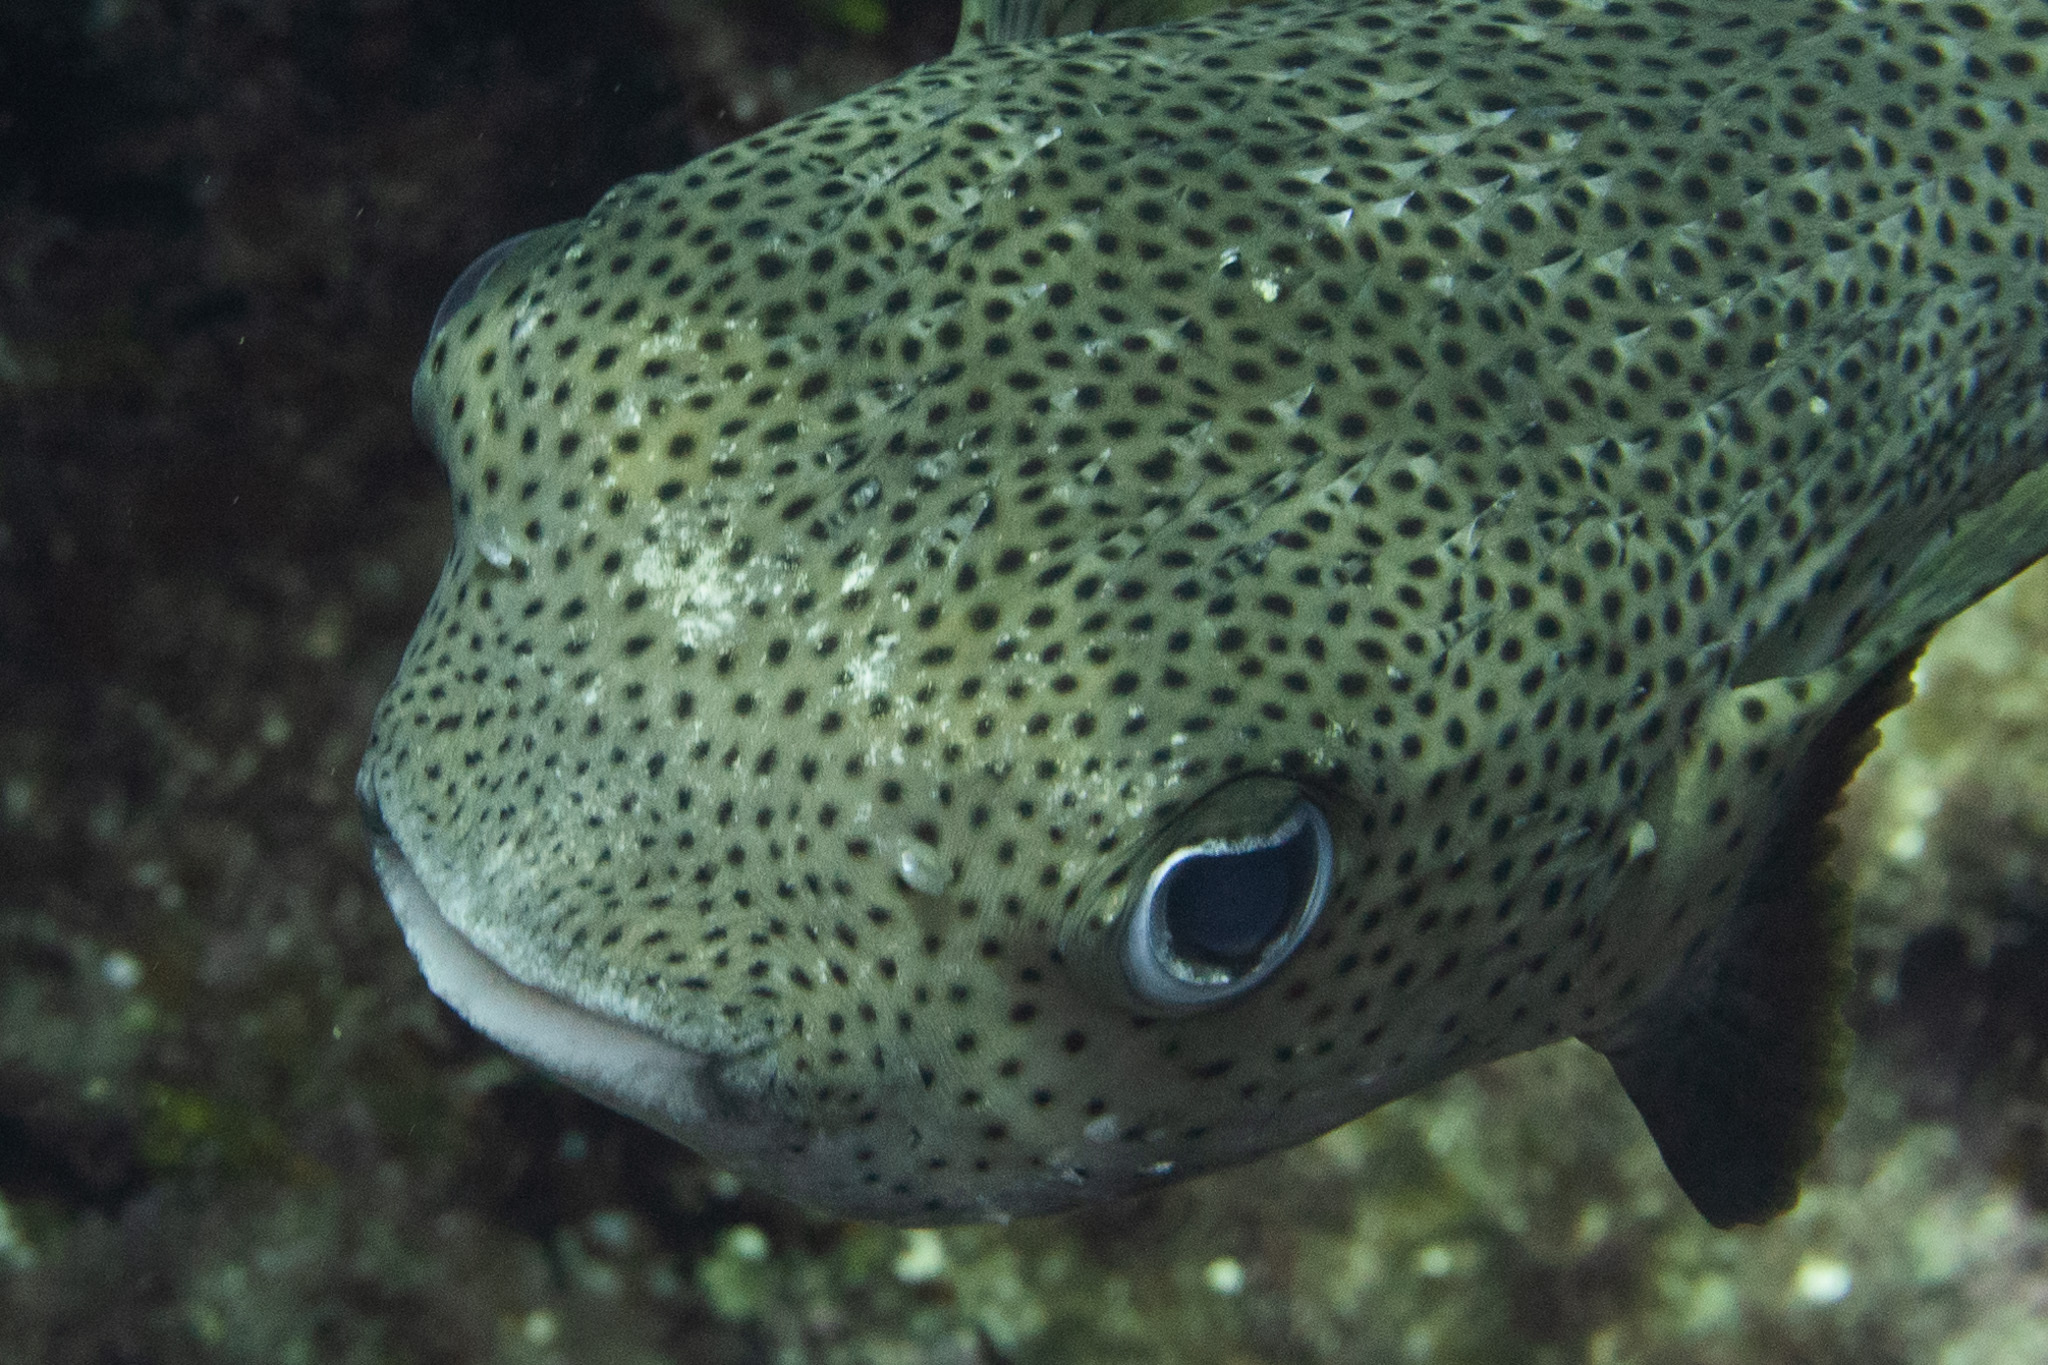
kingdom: Animalia
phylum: Chordata
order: Tetraodontiformes
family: Diodontidae
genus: Diodon
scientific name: Diodon hystrix
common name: Giant porcupinefish
